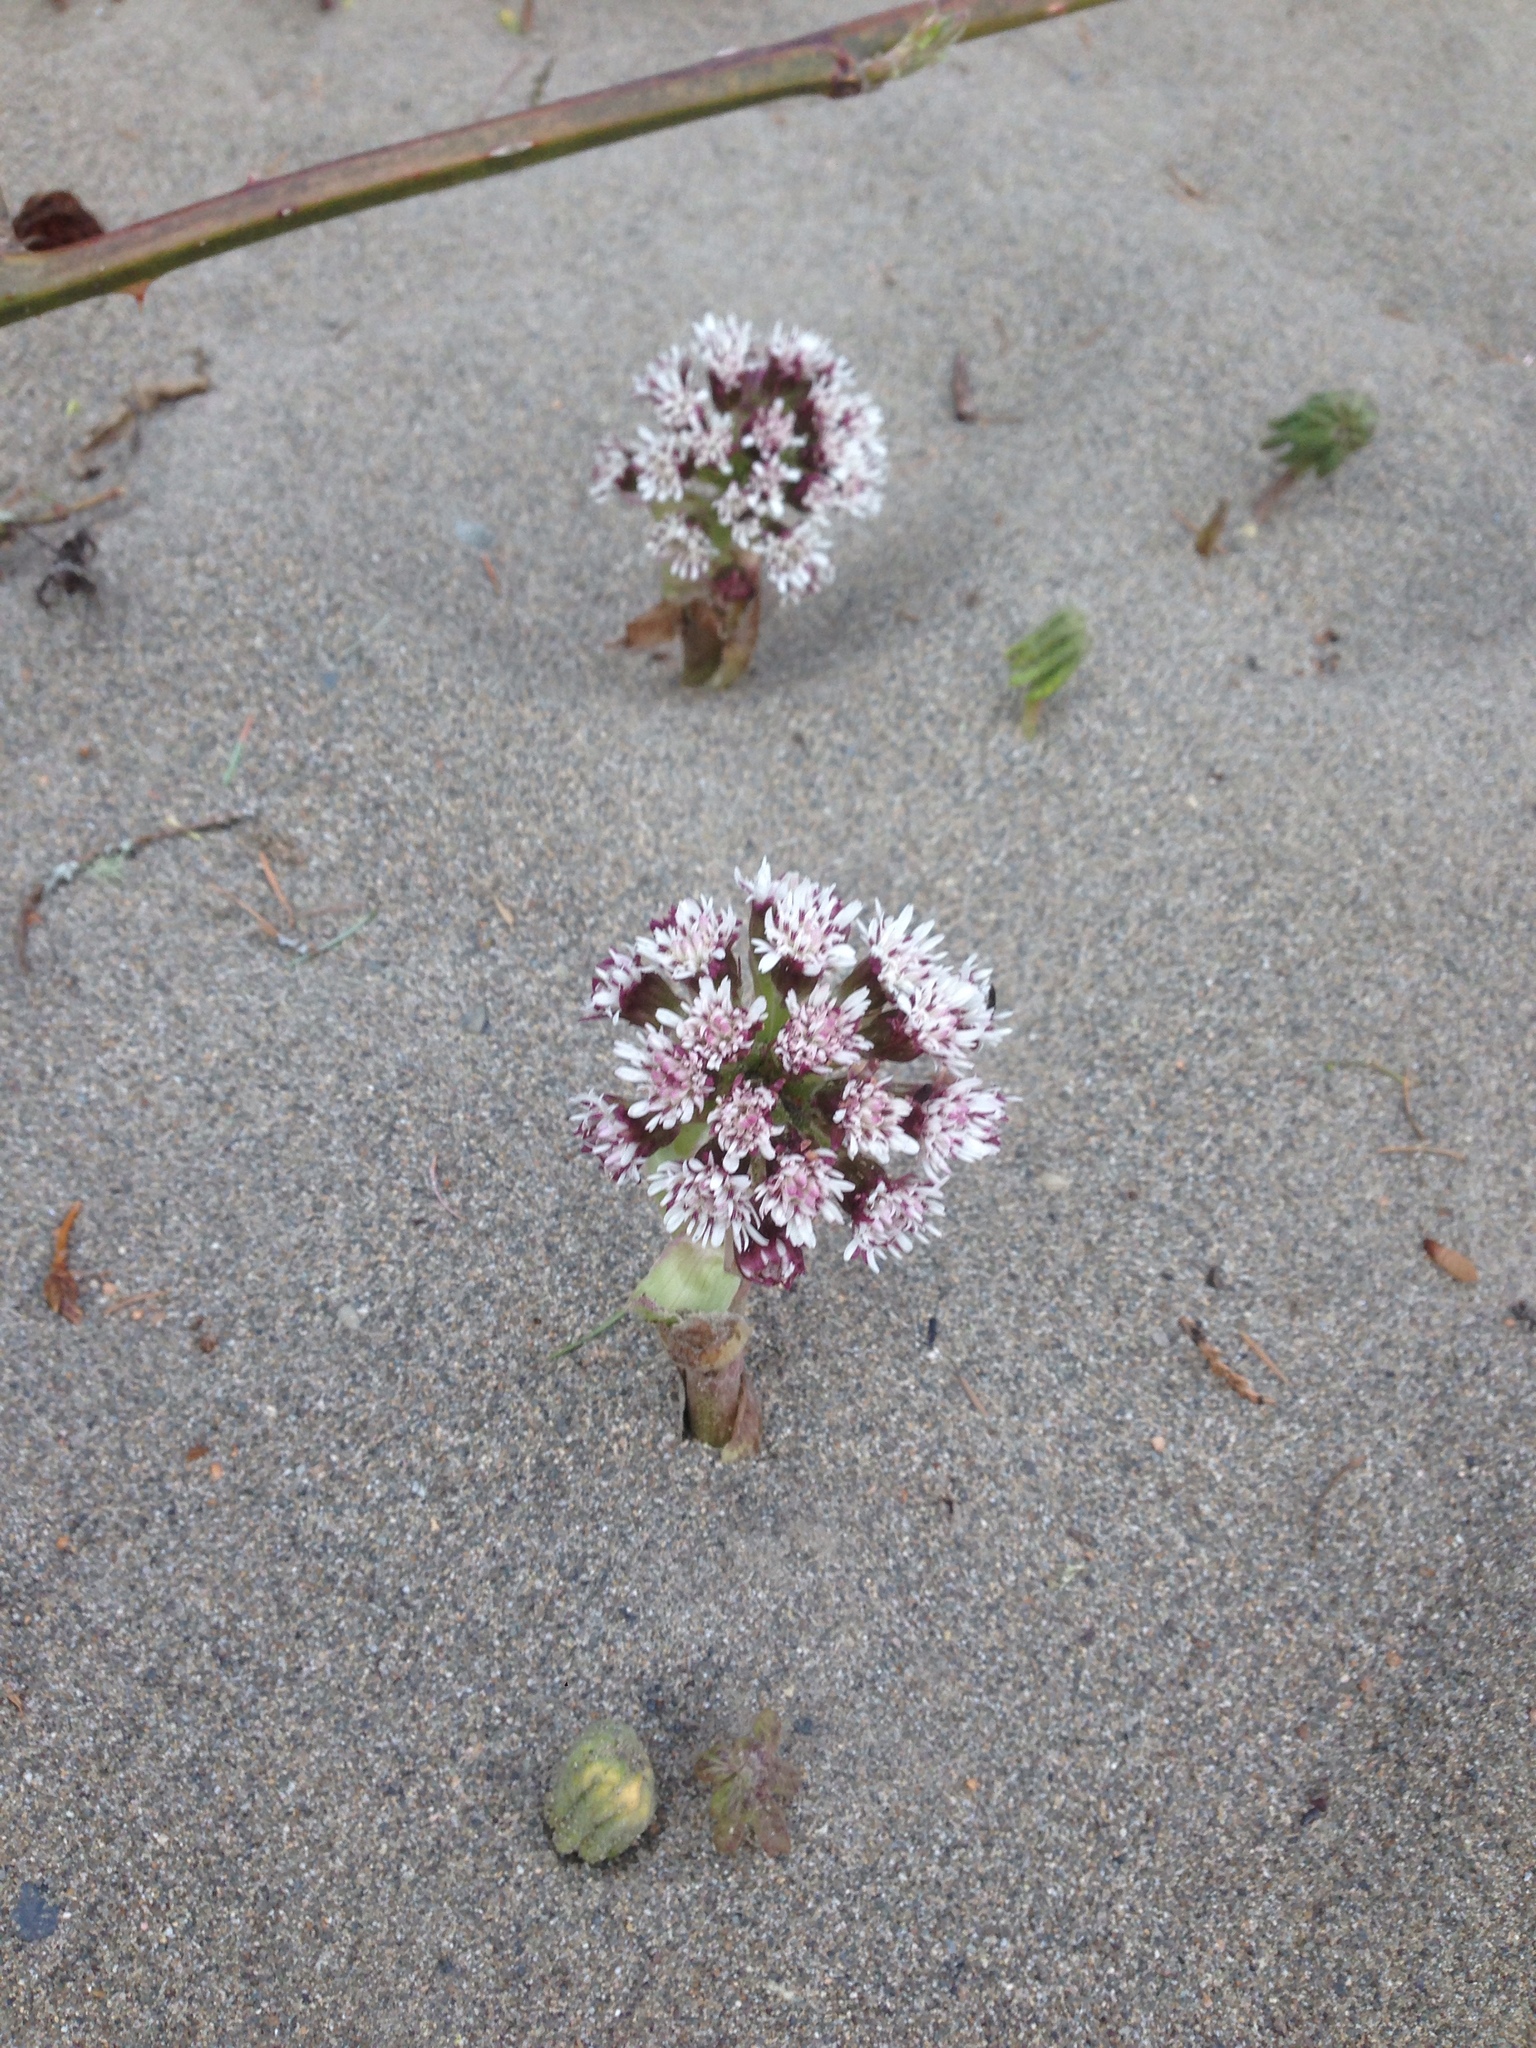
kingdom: Plantae
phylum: Tracheophyta
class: Magnoliopsida
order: Asterales
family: Asteraceae
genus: Petasites
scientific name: Petasites frigidus
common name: Arctic butterbur
